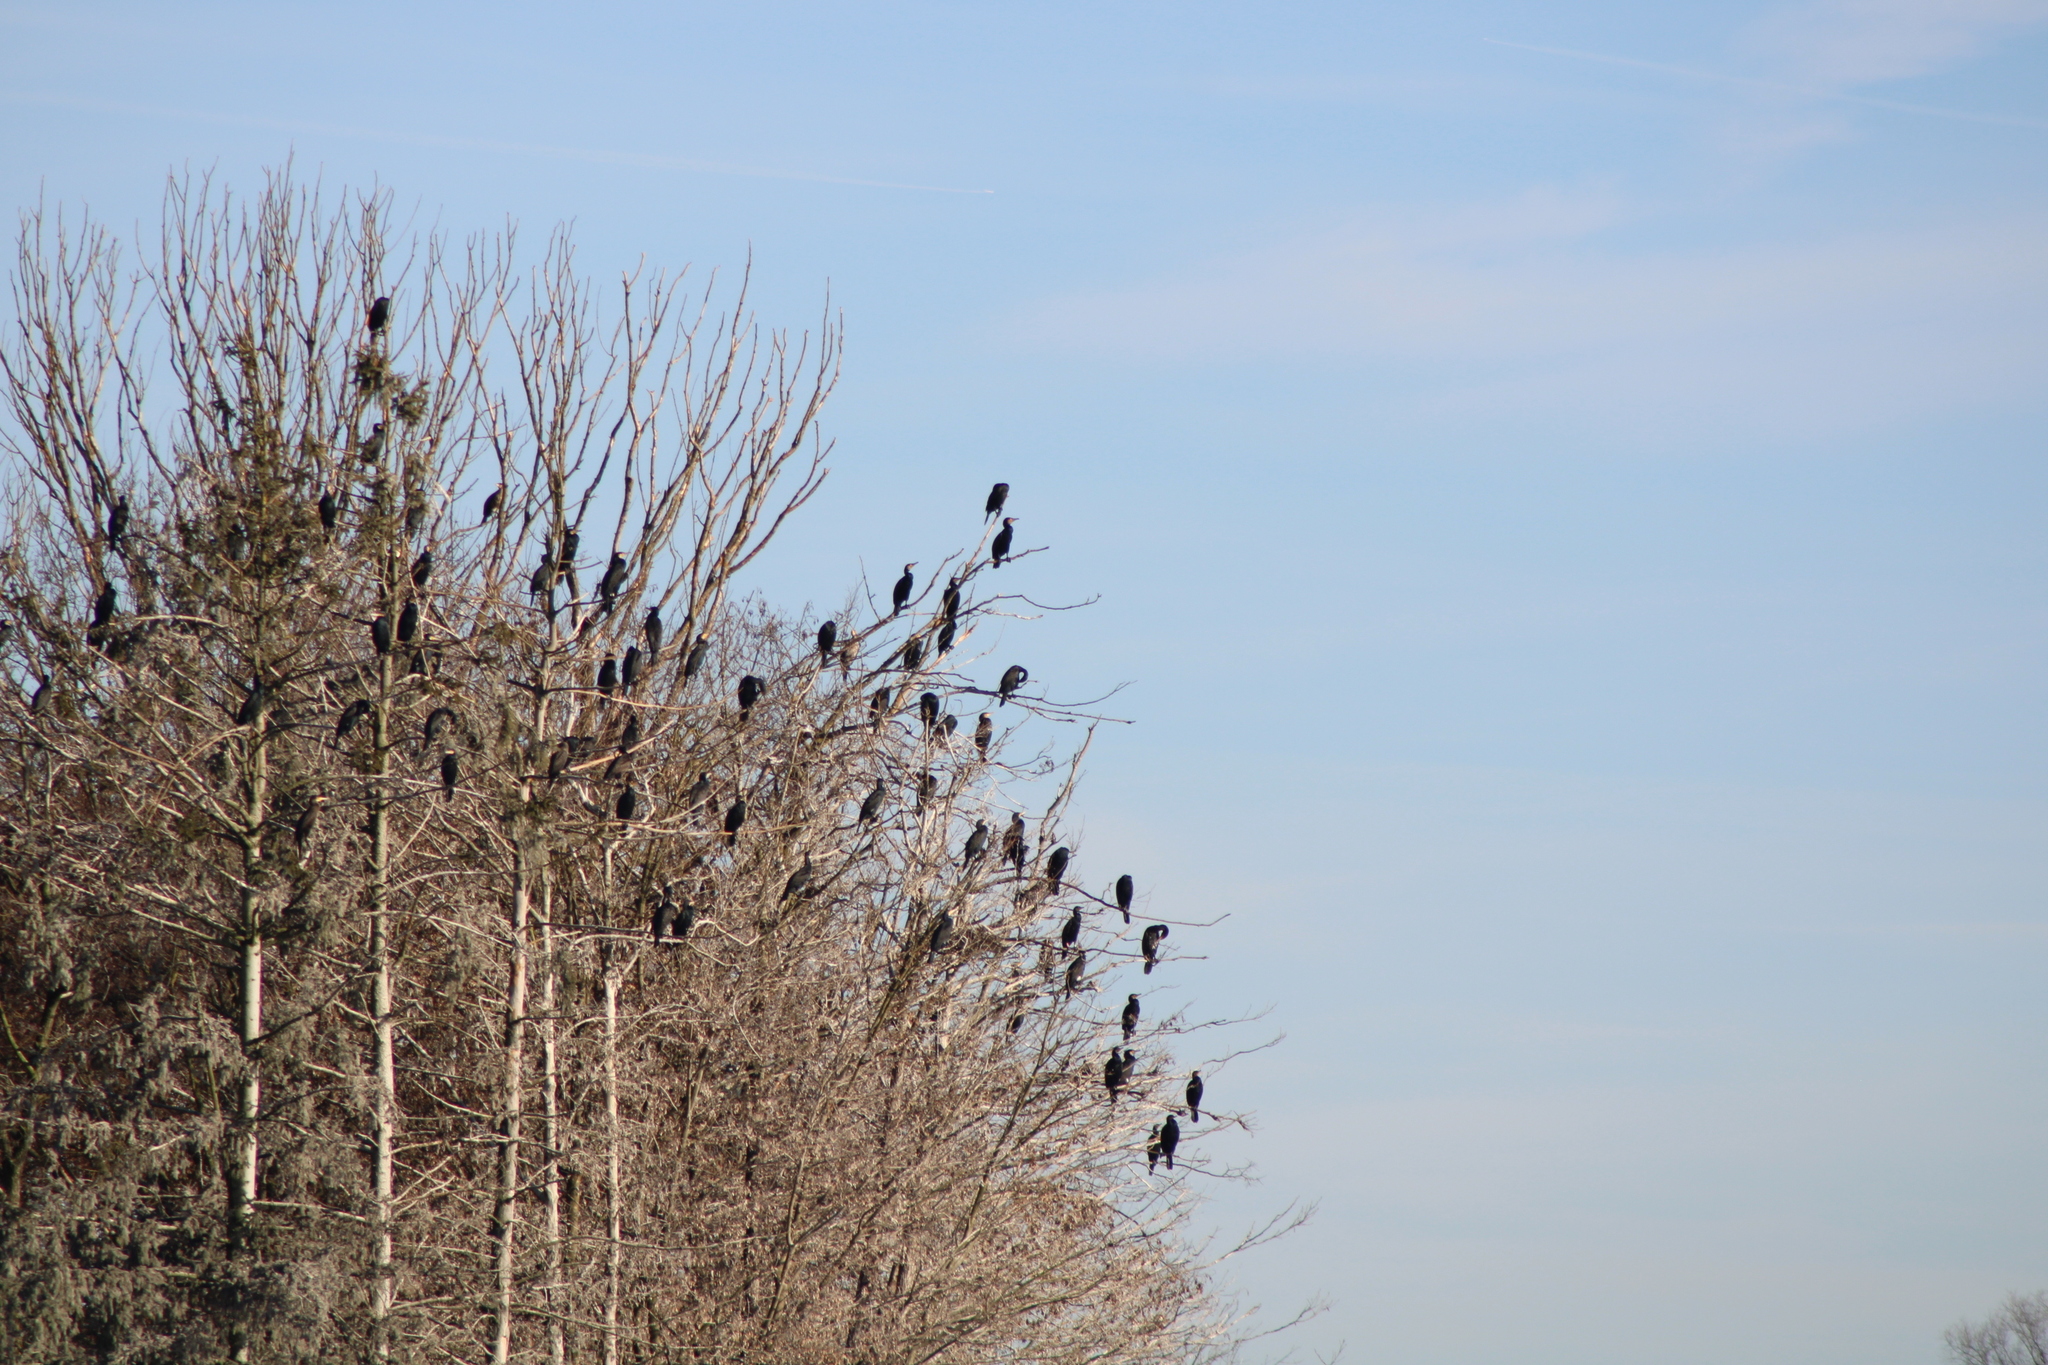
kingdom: Animalia
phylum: Chordata
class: Aves
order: Suliformes
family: Phalacrocoracidae
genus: Phalacrocorax
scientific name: Phalacrocorax carbo
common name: Great cormorant
